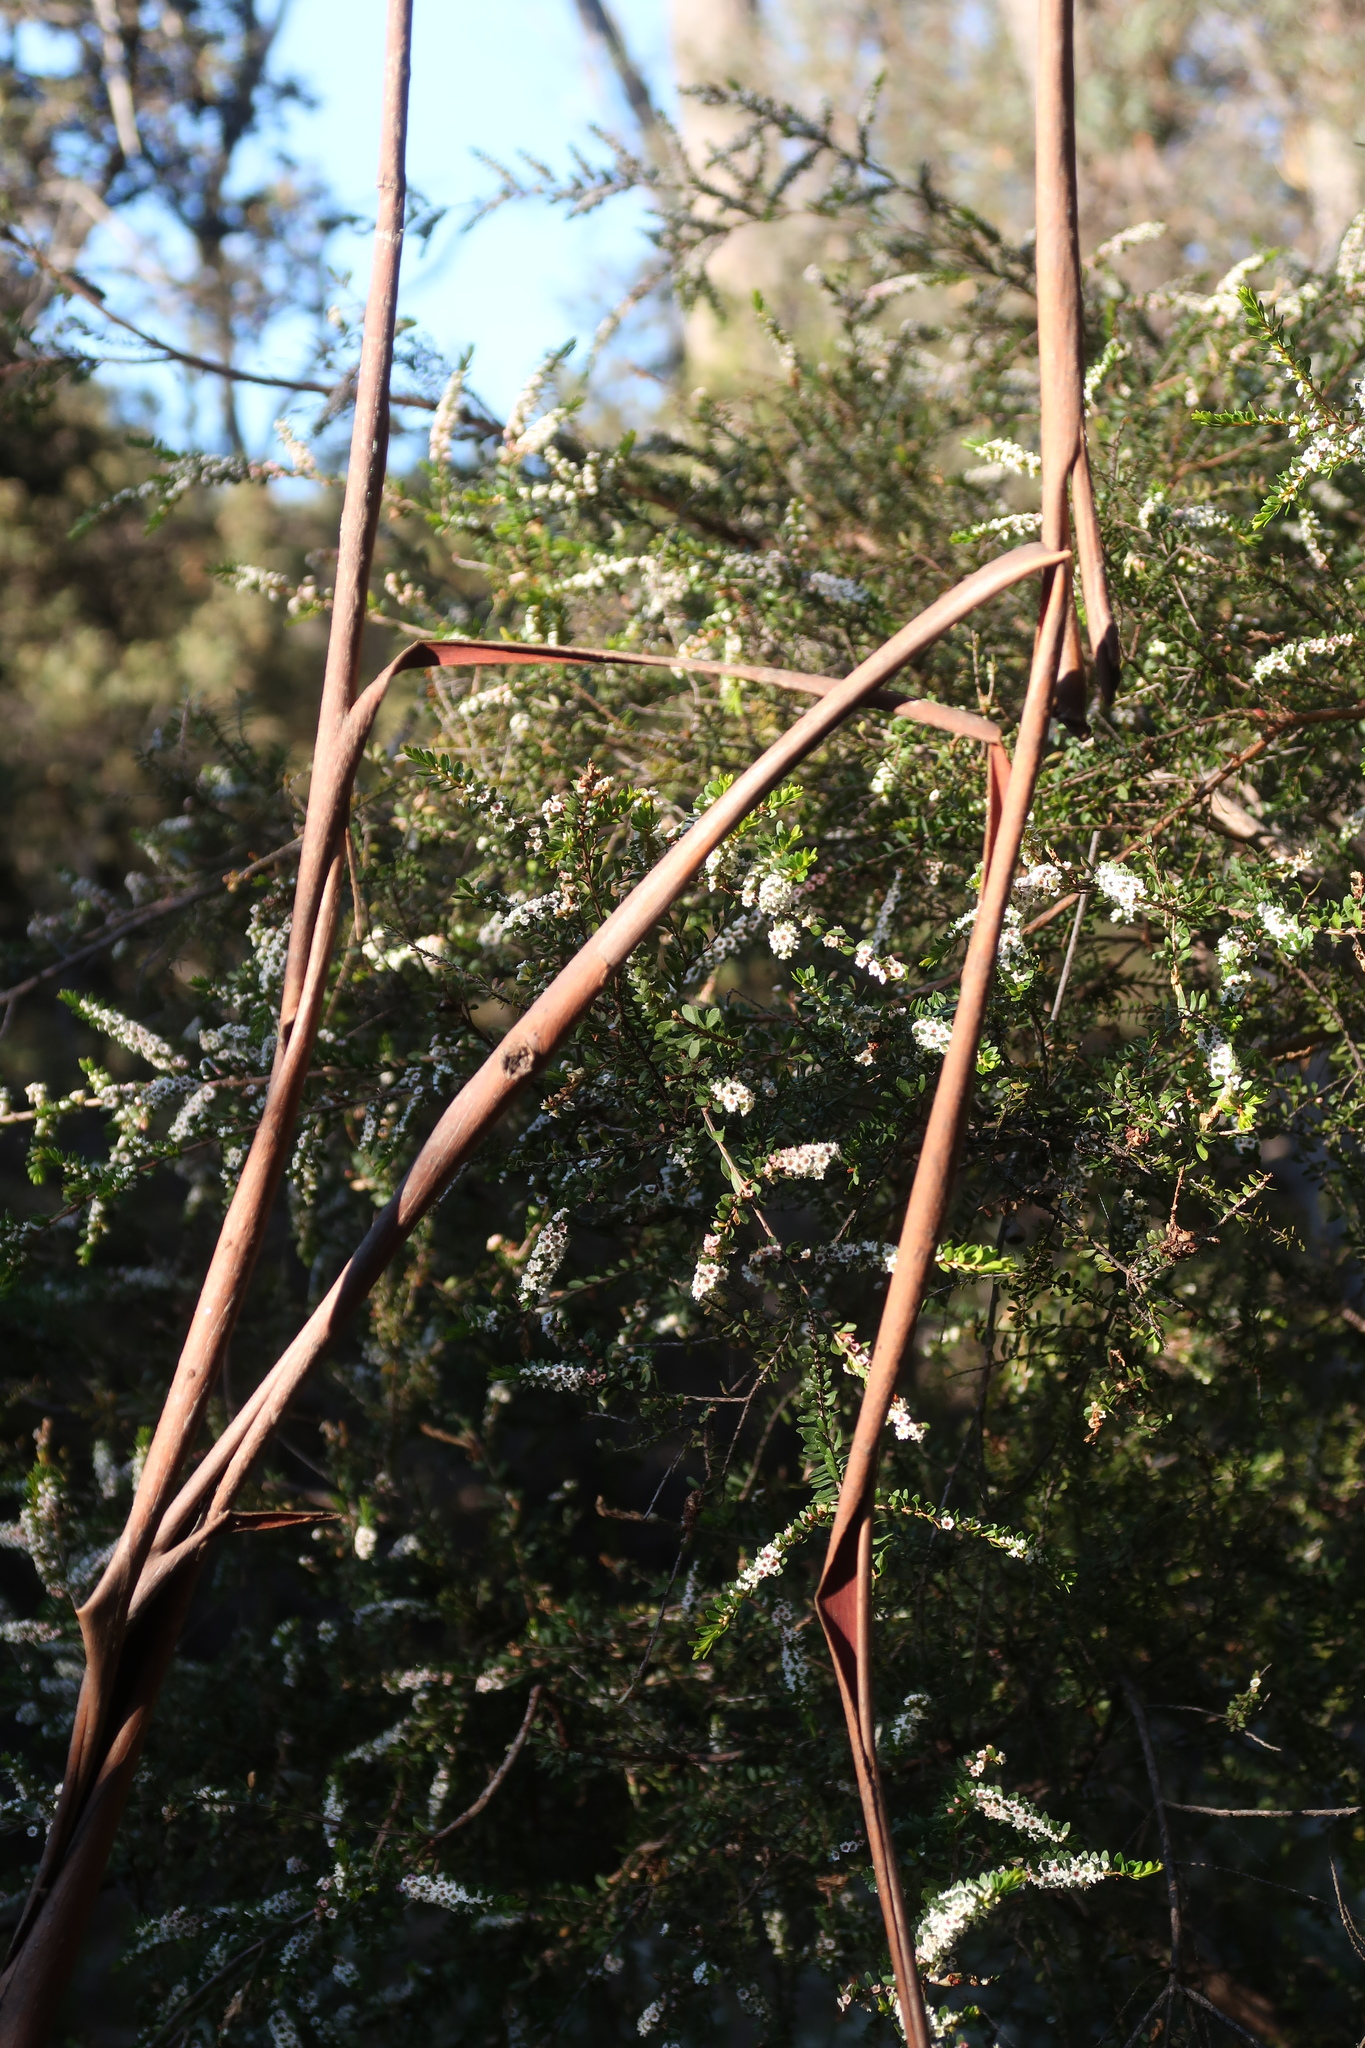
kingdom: Plantae
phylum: Tracheophyta
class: Magnoliopsida
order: Myrtales
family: Myrtaceae
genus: Thryptomene
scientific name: Thryptomene micrantha
